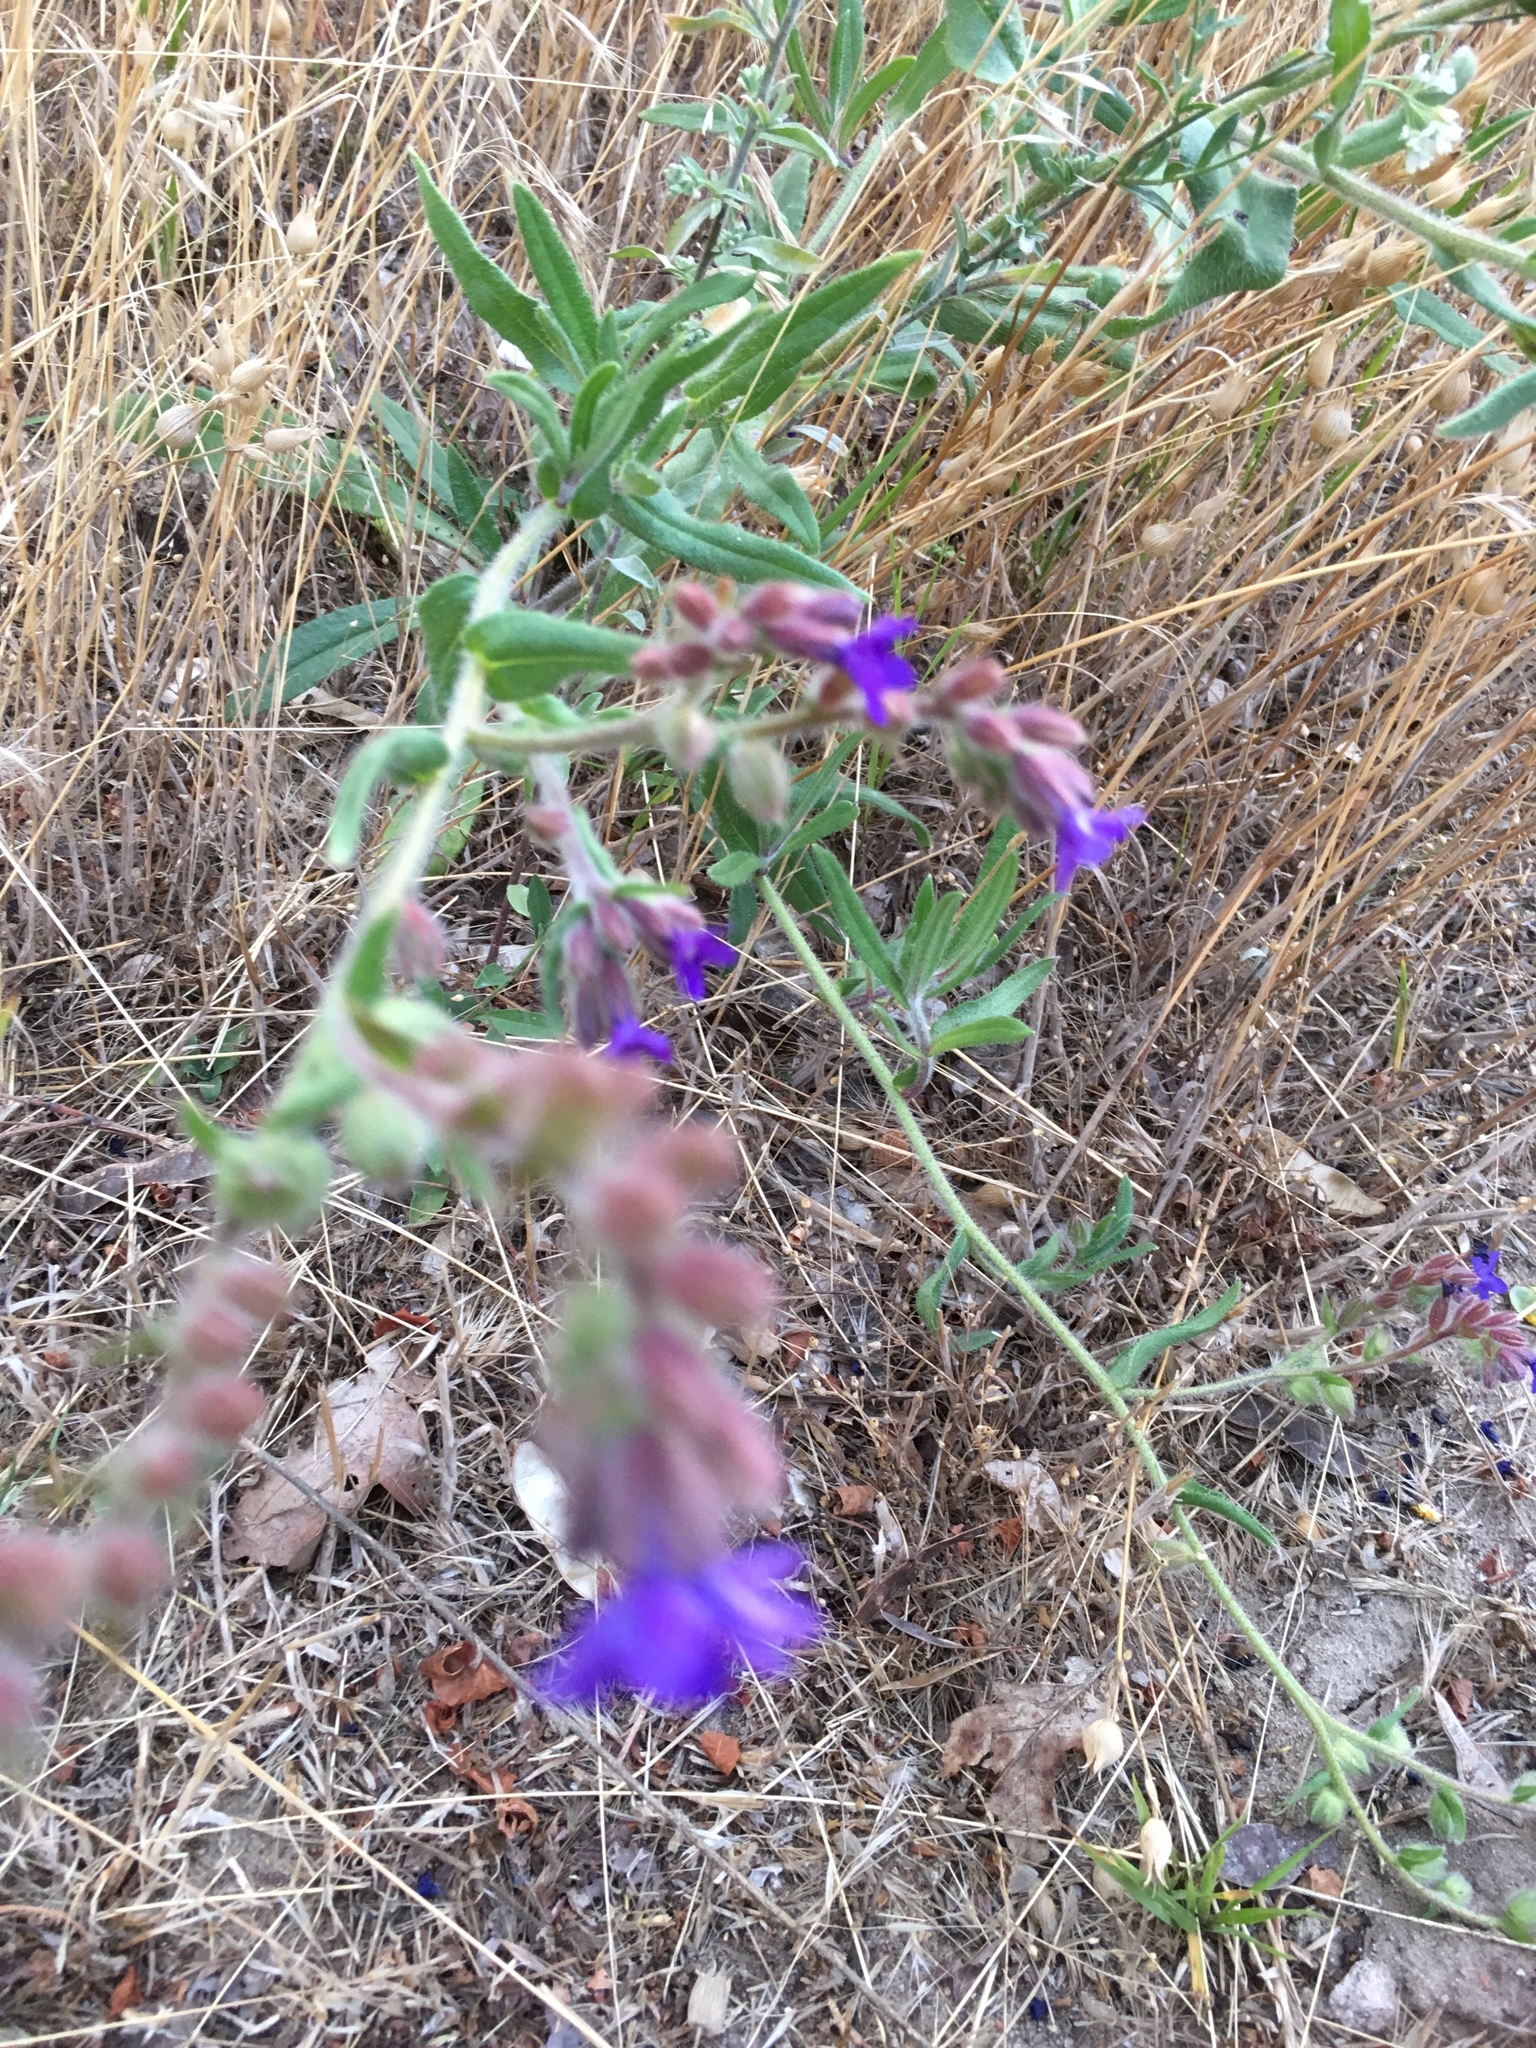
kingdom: Plantae
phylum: Tracheophyta
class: Magnoliopsida
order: Boraginales
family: Boraginaceae
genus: Anchusa
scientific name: Anchusa officinalis
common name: Alkanet
